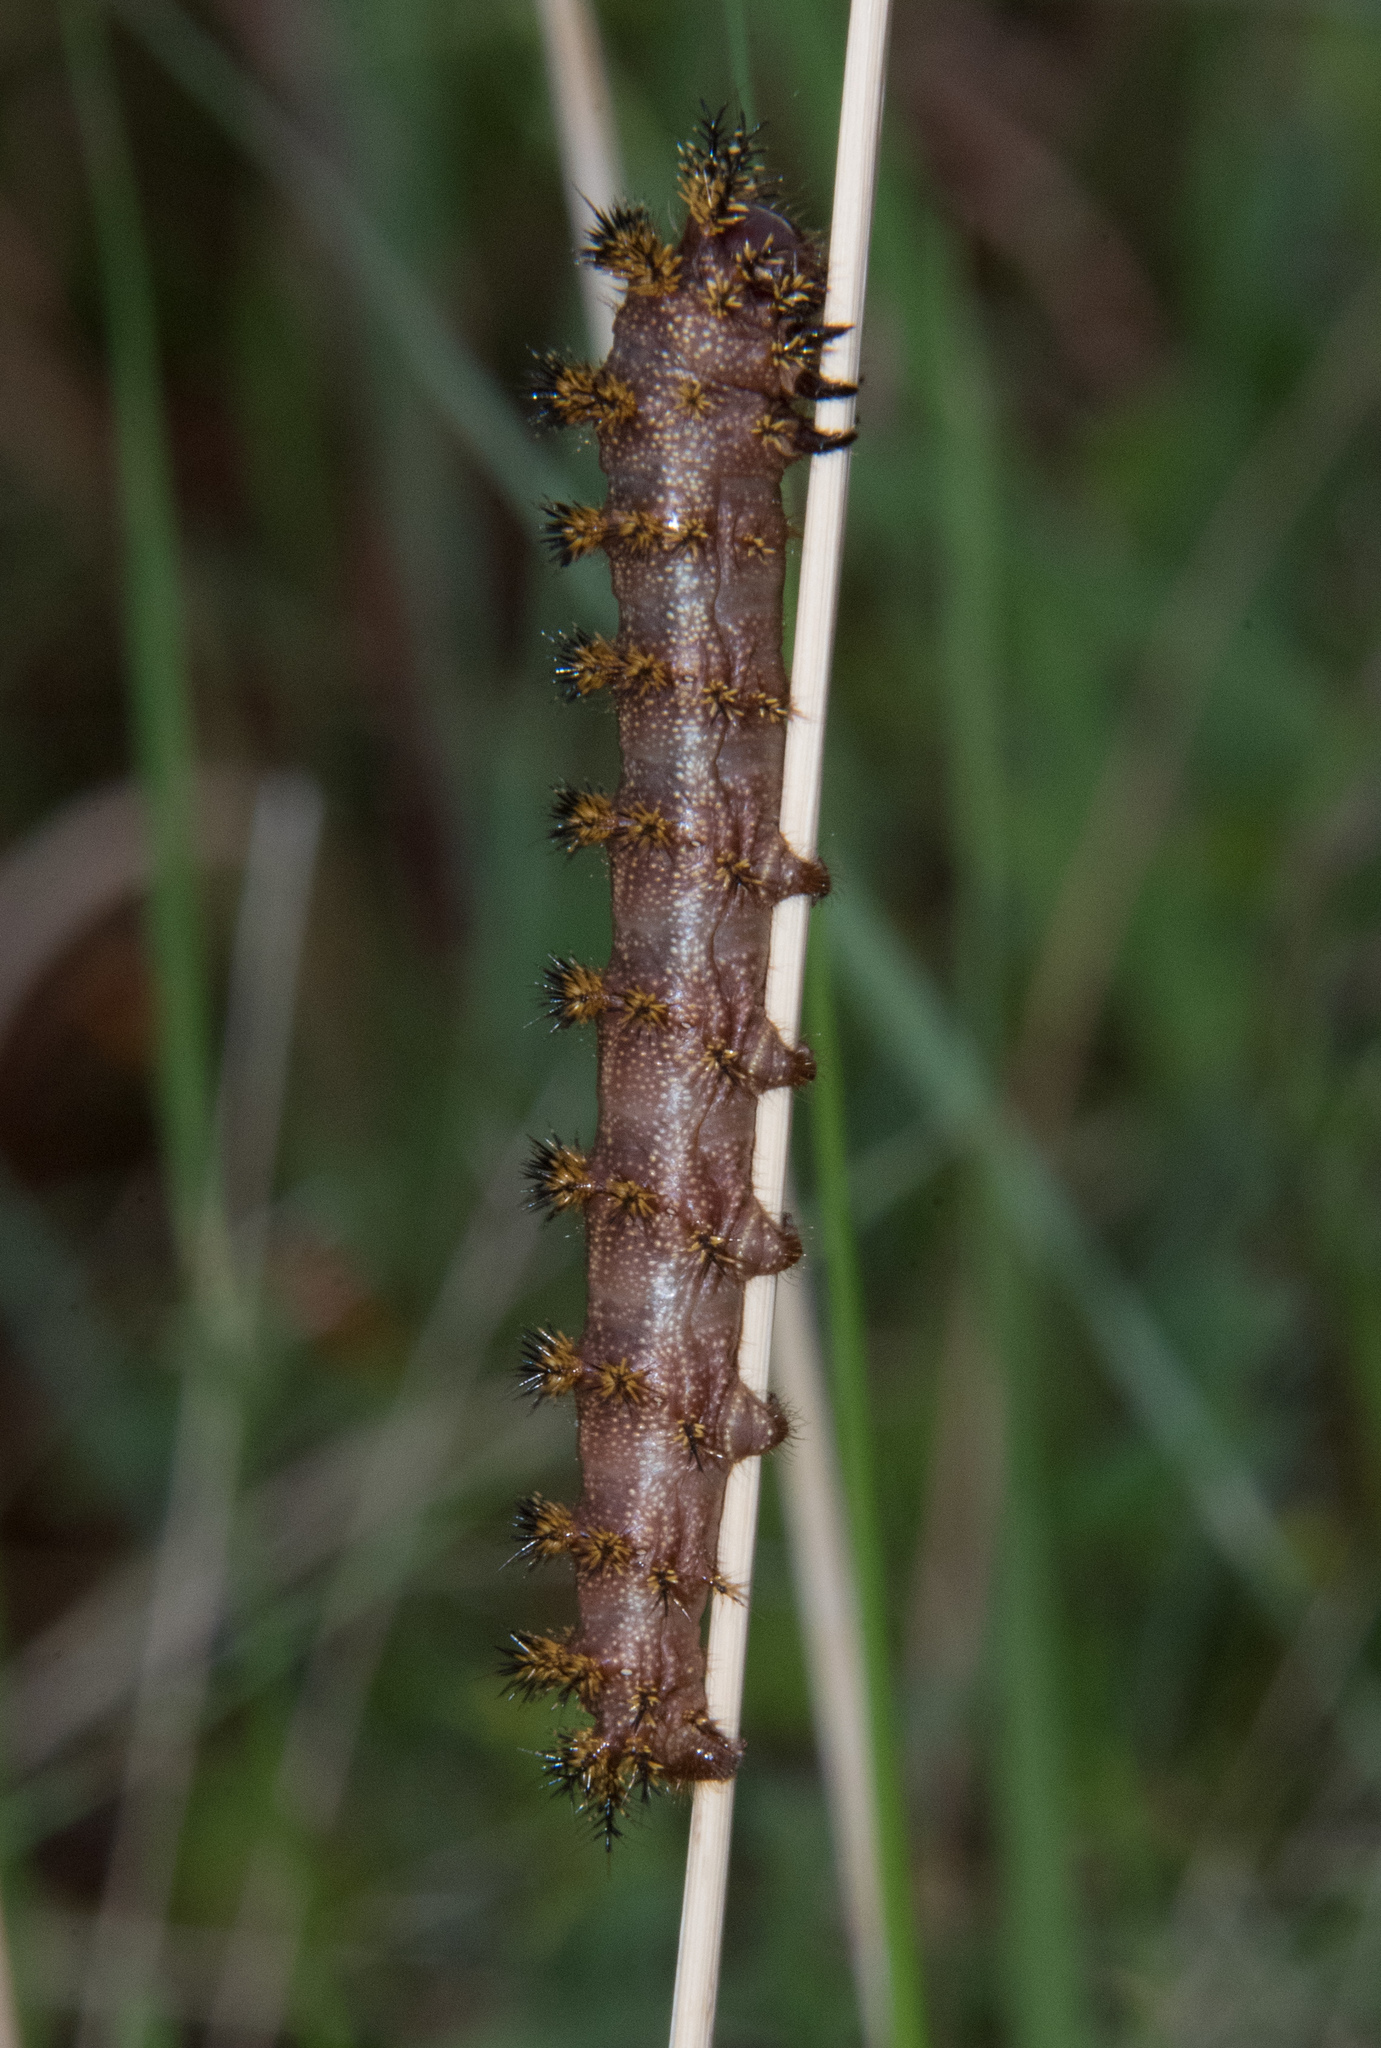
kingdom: Animalia
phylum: Arthropoda
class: Insecta
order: Lepidoptera
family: Saturniidae
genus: Hemileuca
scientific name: Hemileuca hualapai
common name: Hualapai buckmoth
